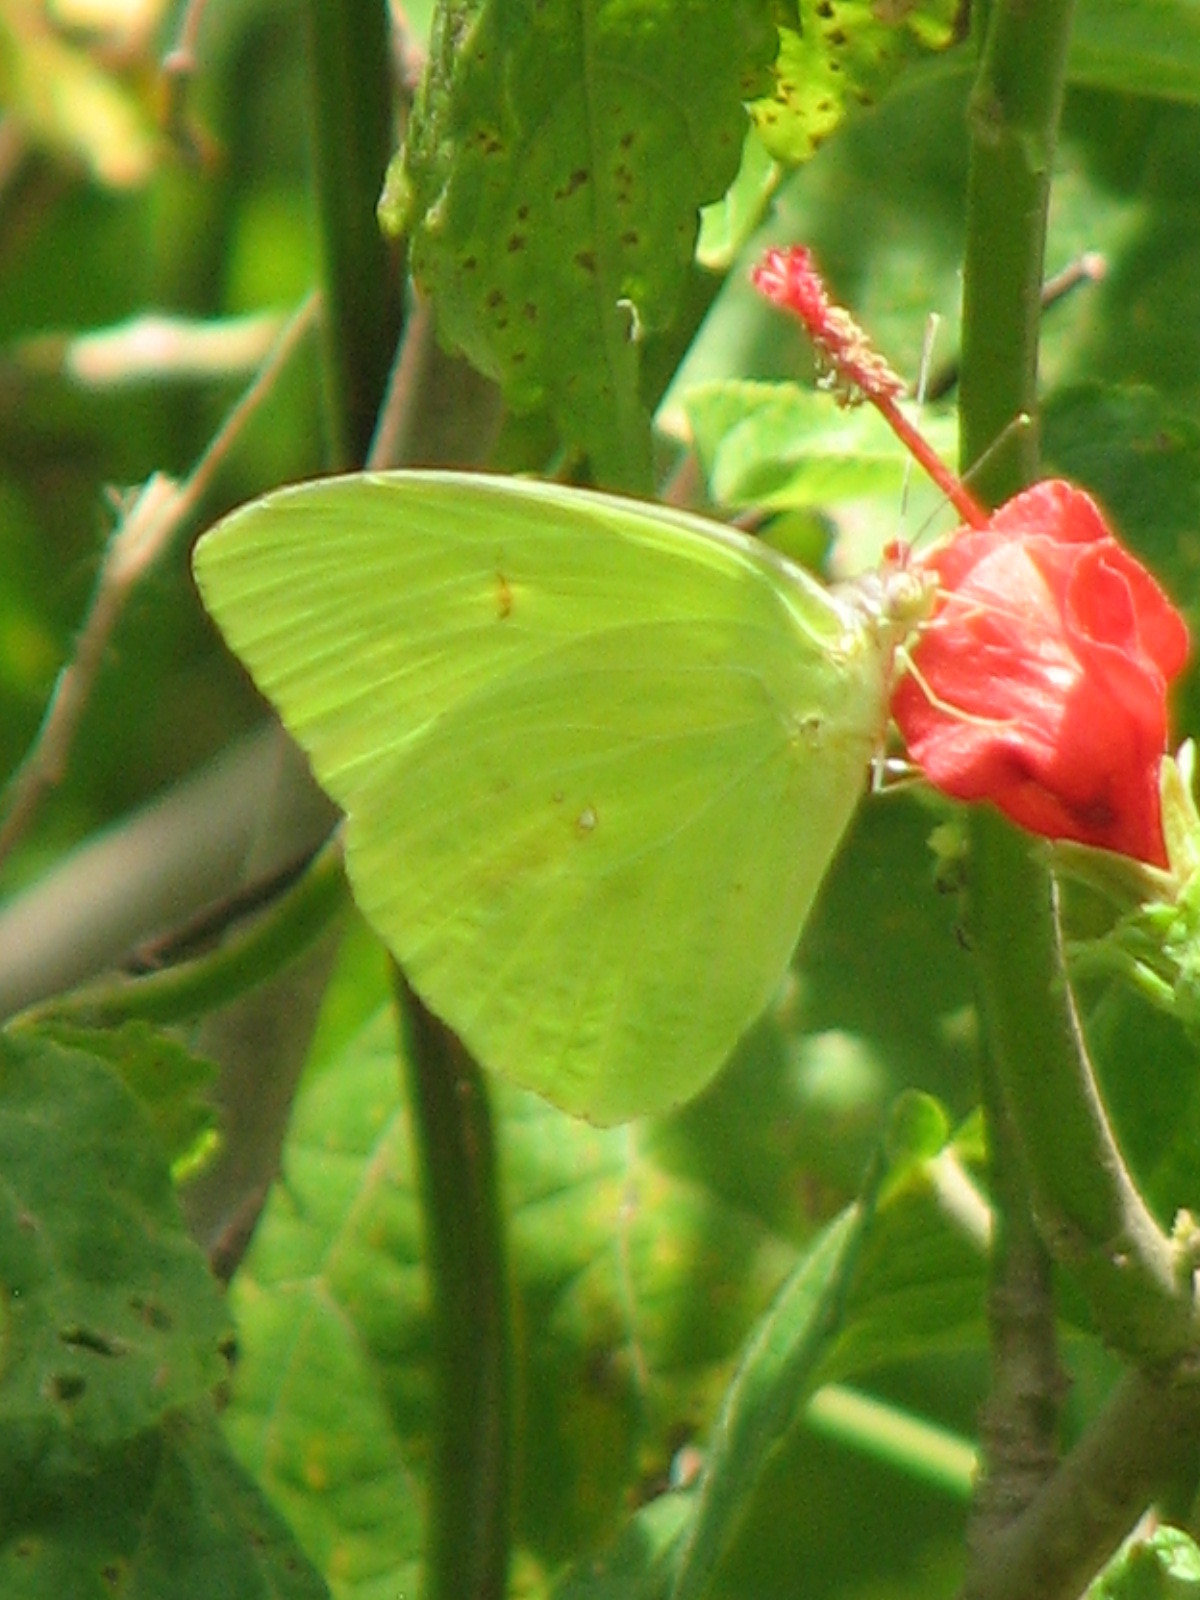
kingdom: Animalia
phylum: Arthropoda
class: Insecta
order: Lepidoptera
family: Pieridae
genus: Phoebis
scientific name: Phoebis sennae
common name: Cloudless sulphur
